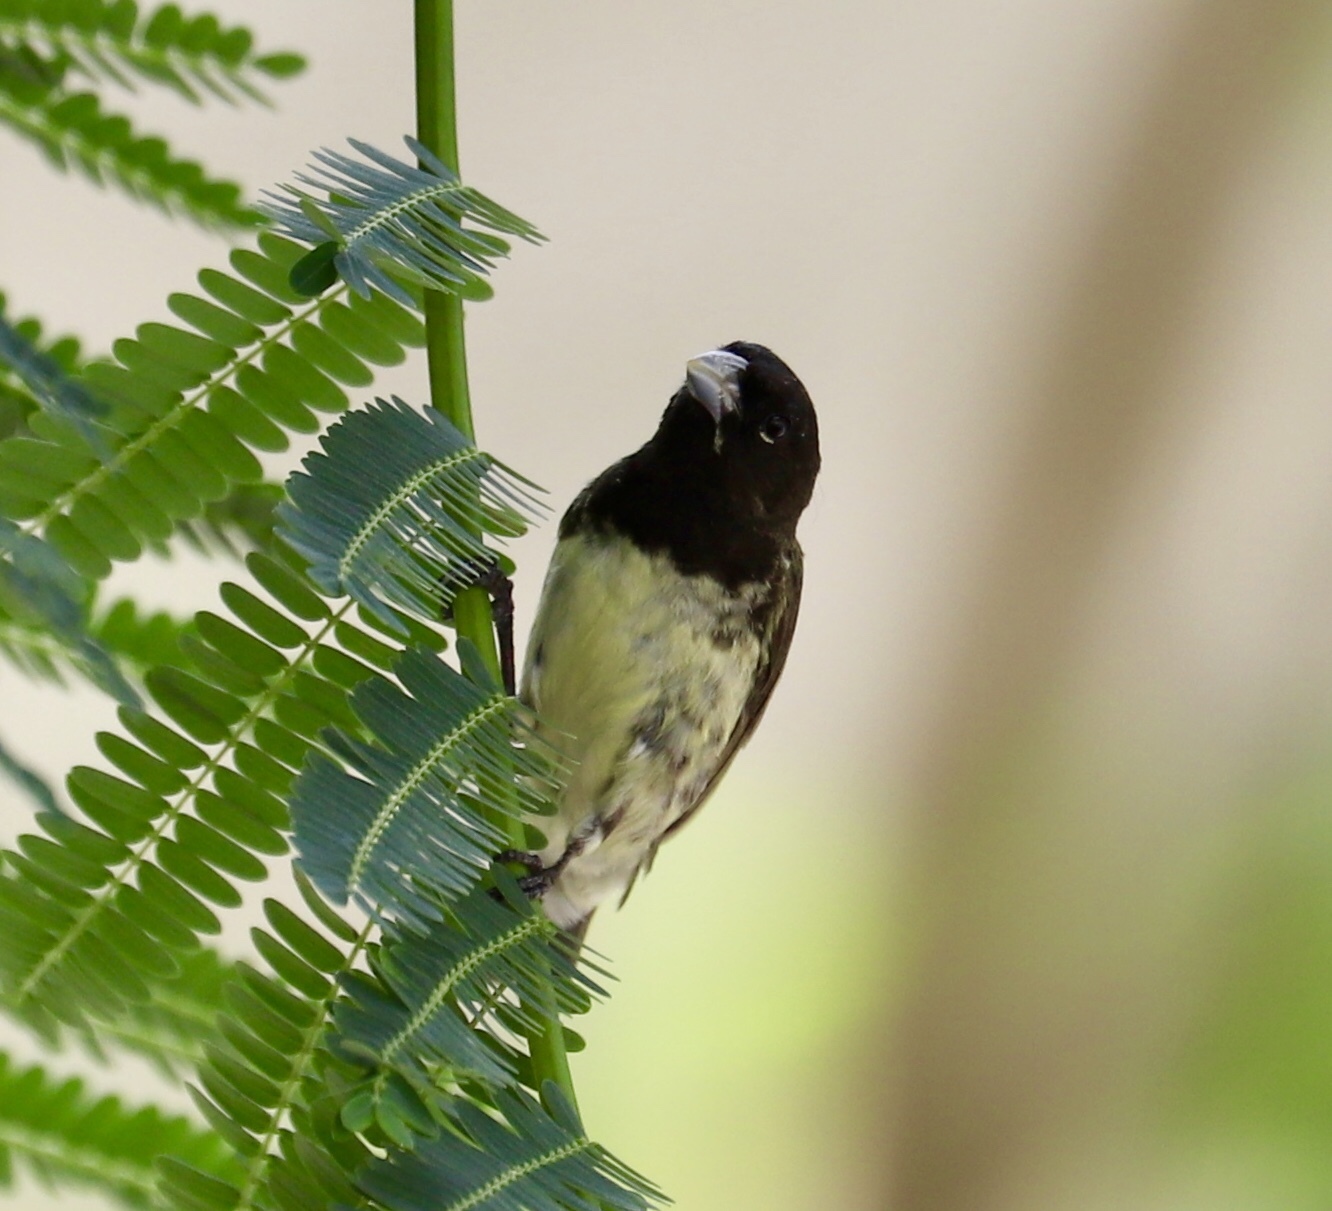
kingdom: Animalia
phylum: Chordata
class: Aves
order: Passeriformes
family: Thraupidae
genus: Sporophila
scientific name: Sporophila nigricollis
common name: Yellow-bellied seedeater
